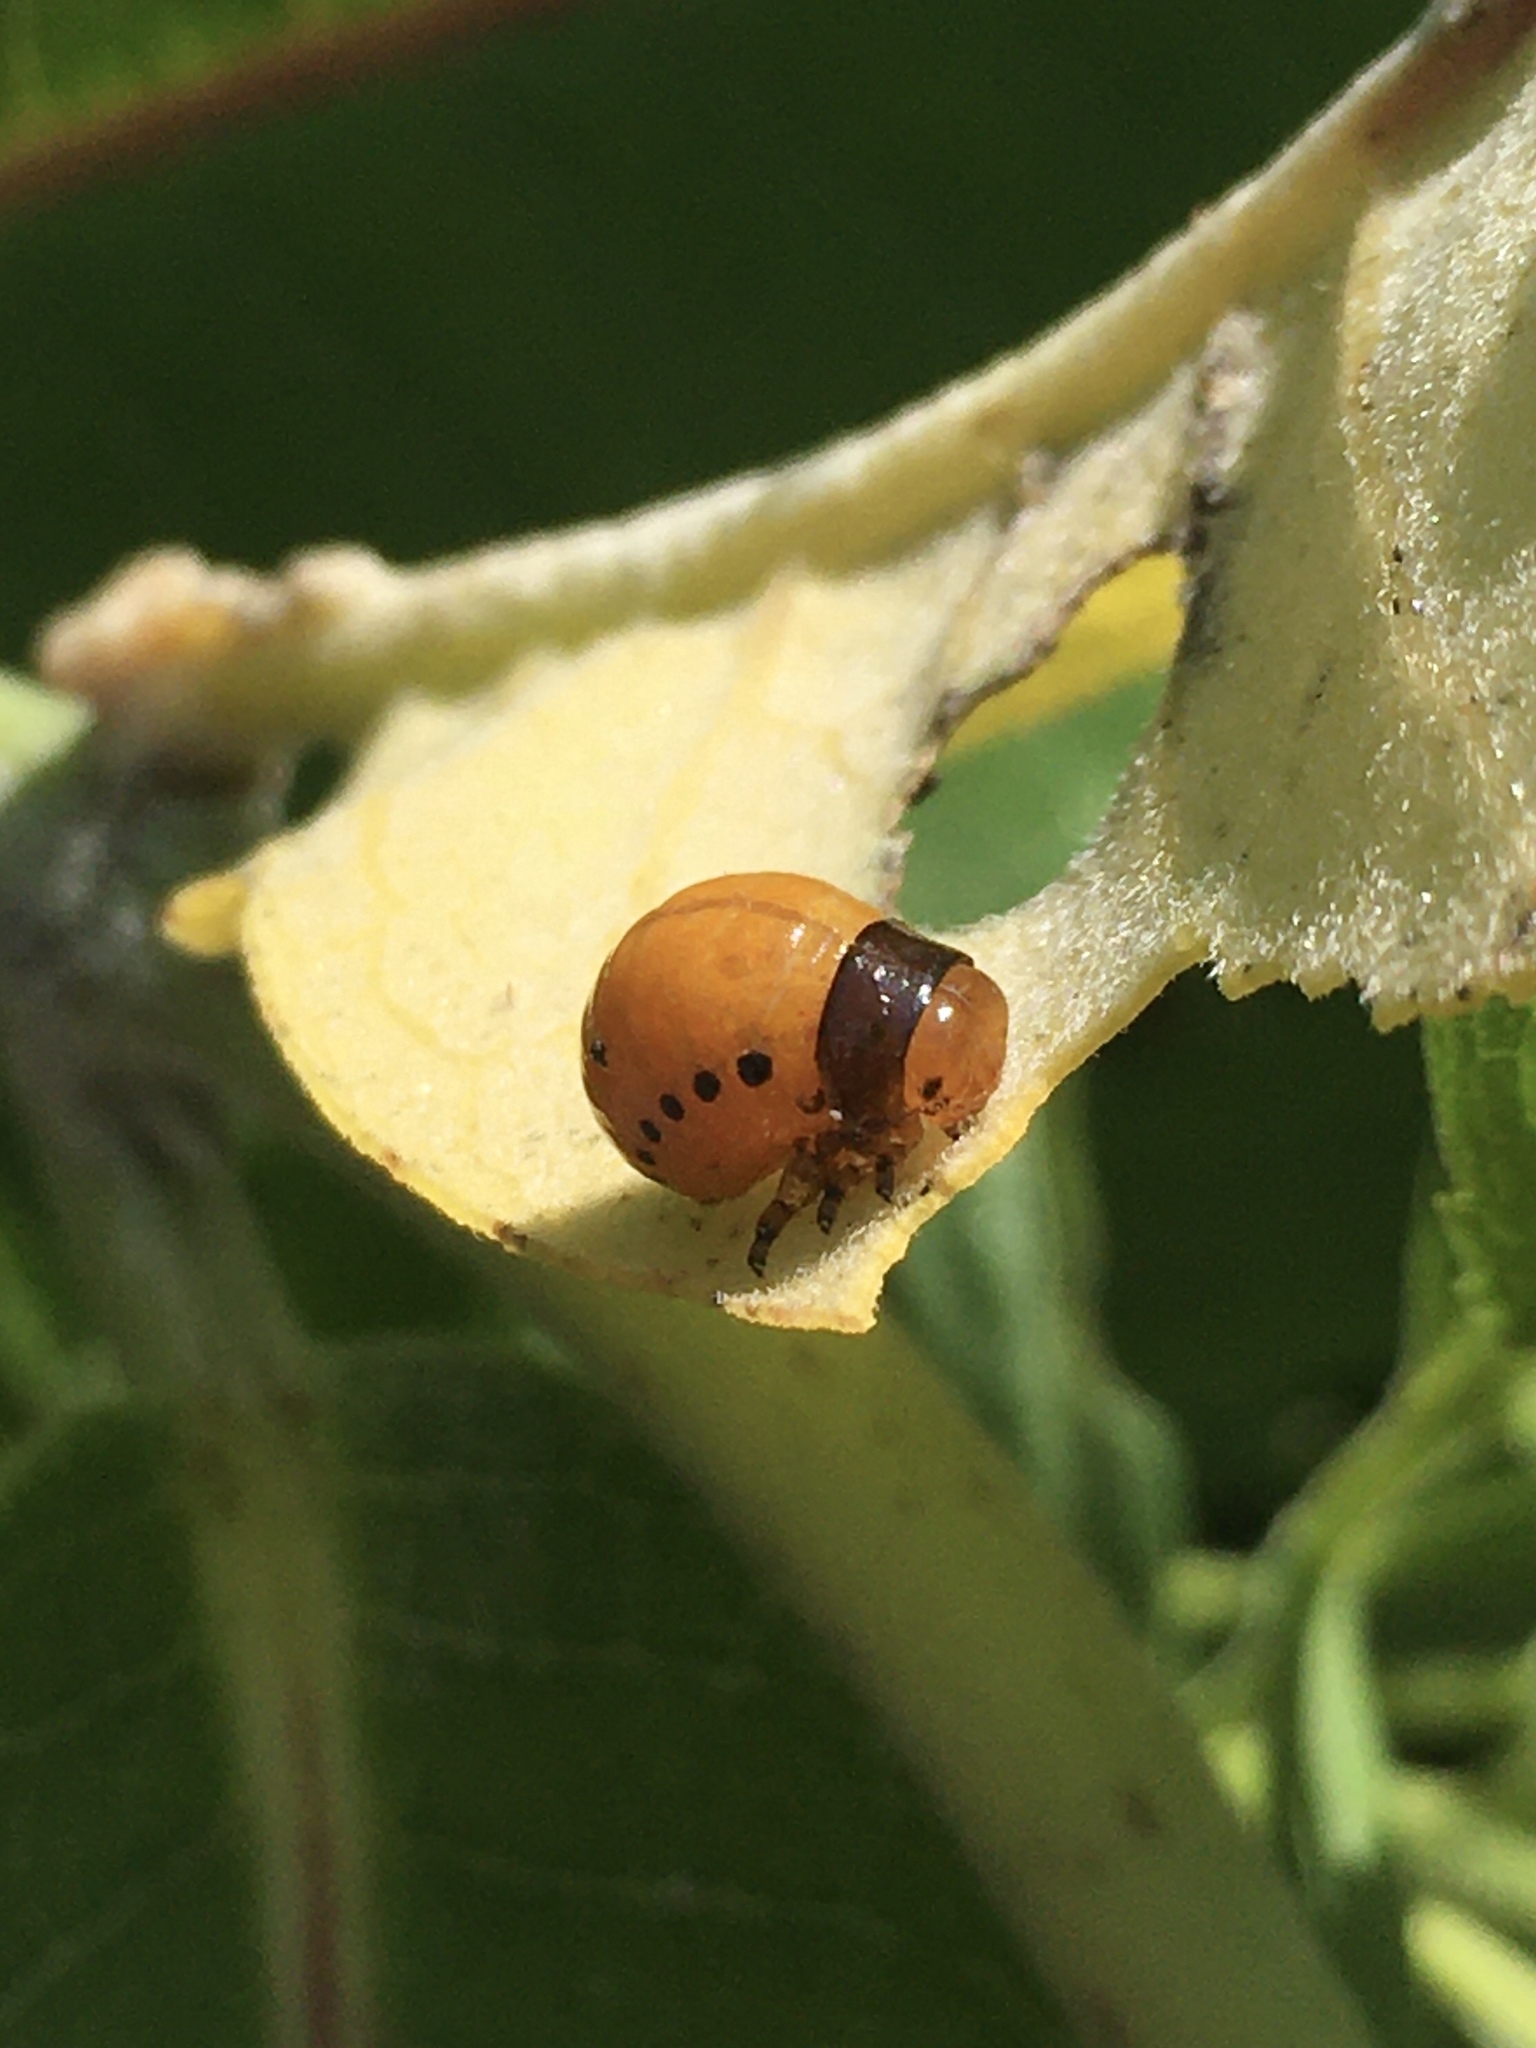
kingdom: Animalia
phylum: Arthropoda
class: Insecta
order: Coleoptera
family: Chrysomelidae
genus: Labidomera
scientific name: Labidomera clivicollis
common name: Swamp milkweed leaf beetle
